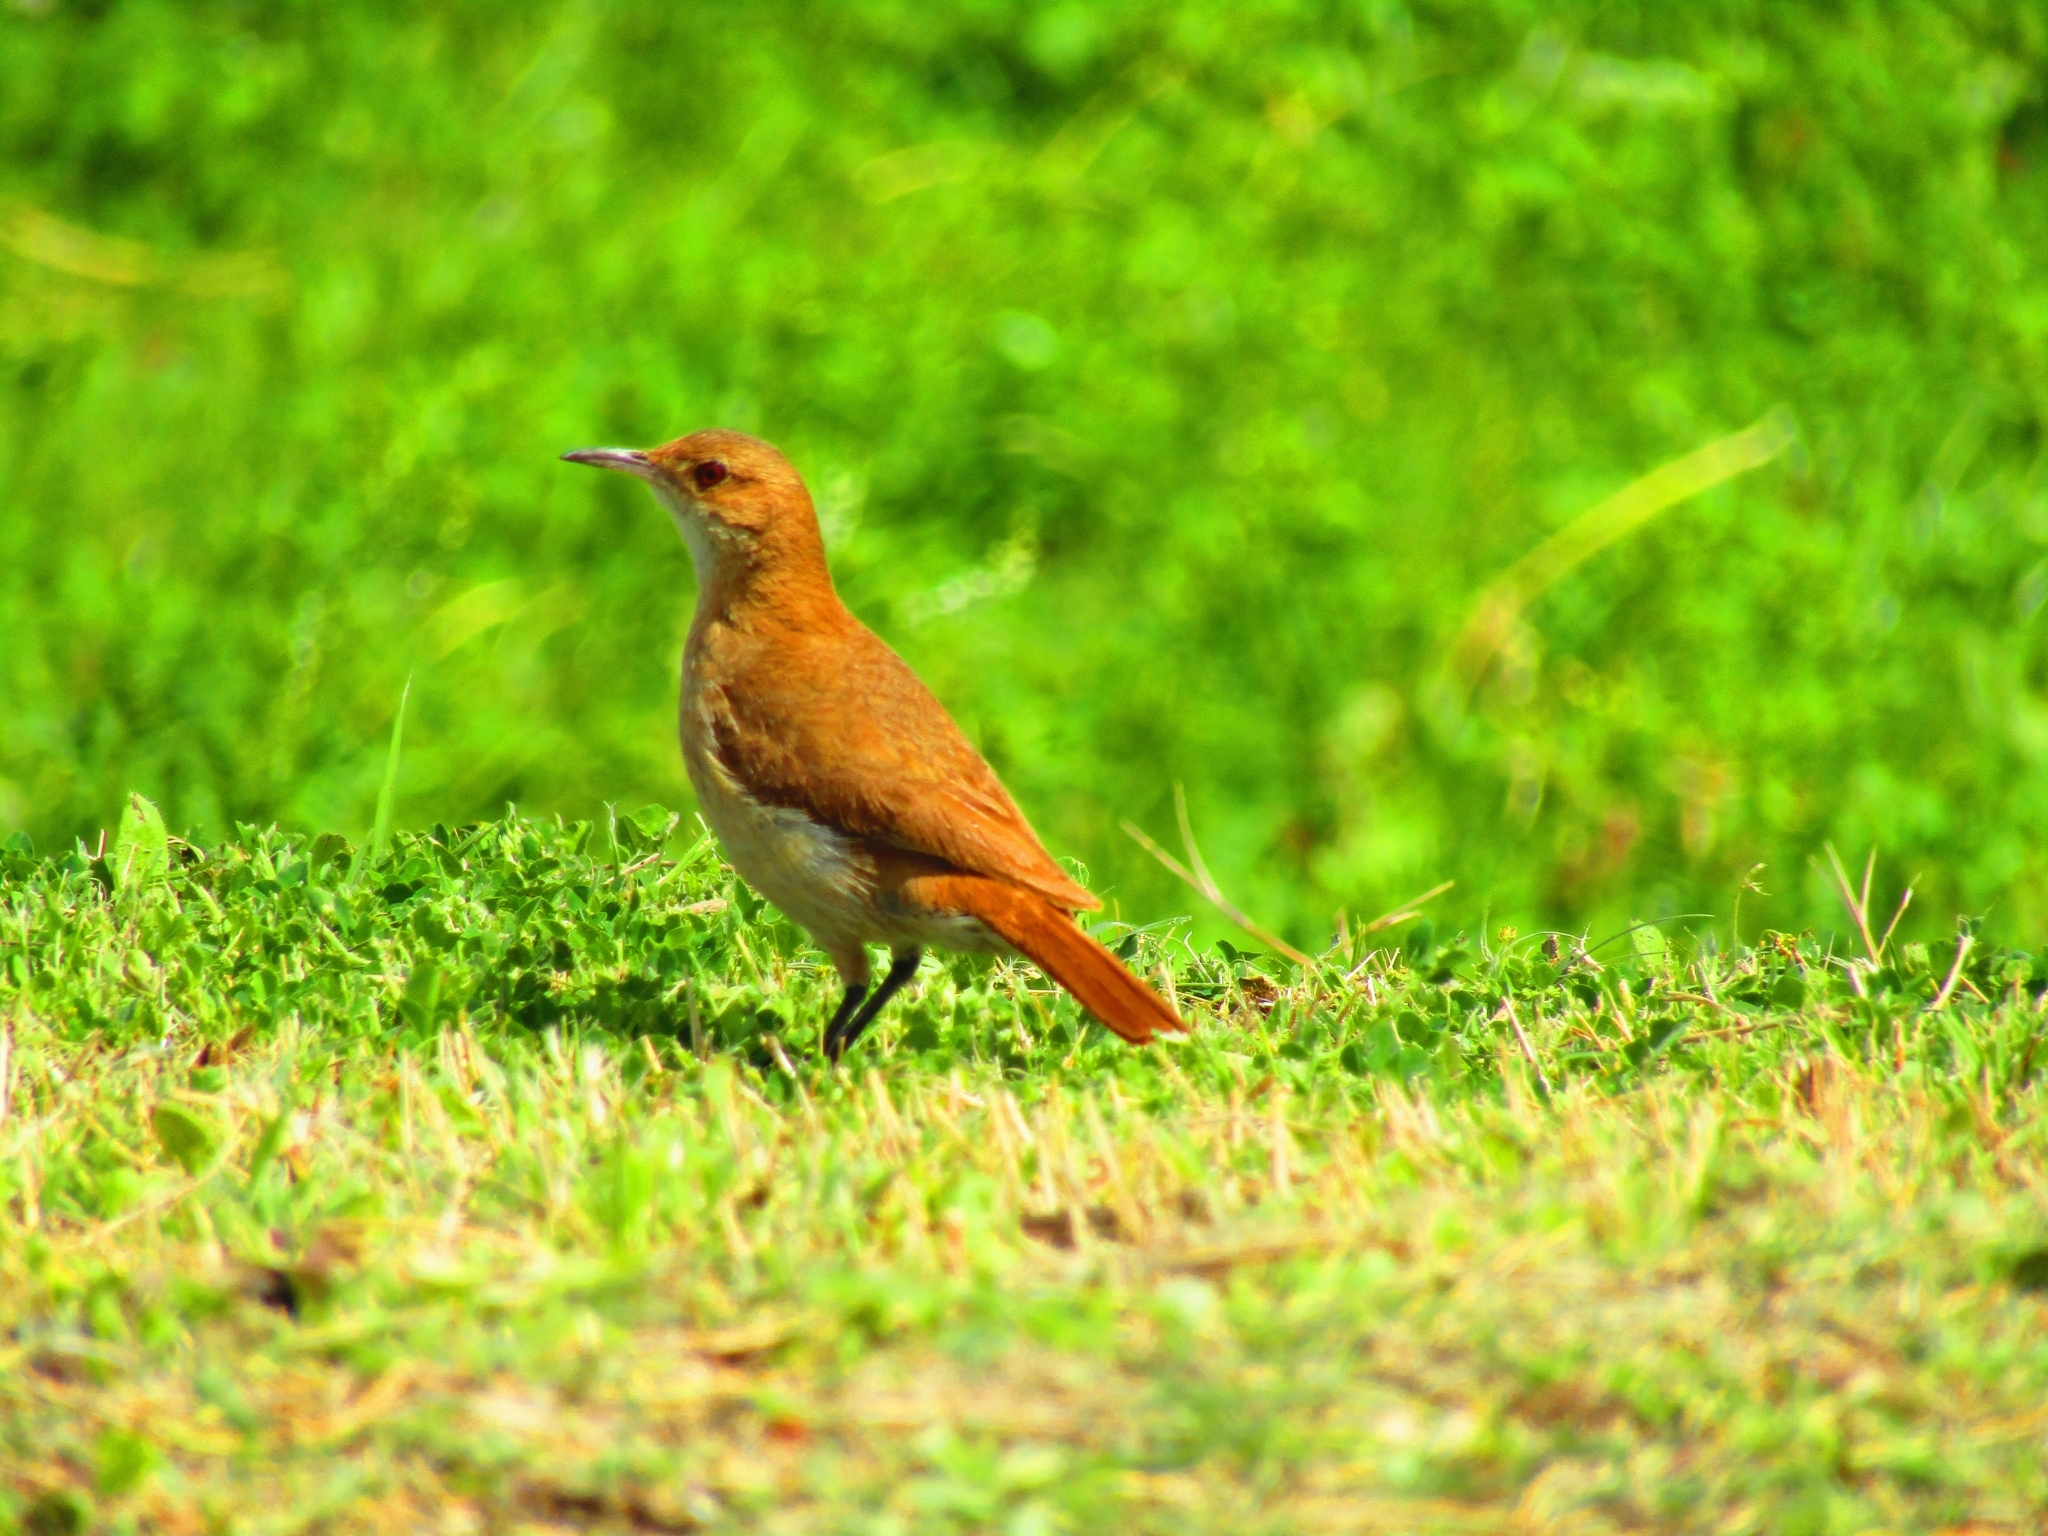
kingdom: Animalia
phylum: Chordata
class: Aves
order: Passeriformes
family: Furnariidae
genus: Furnarius
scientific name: Furnarius rufus
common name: Rufous hornero
